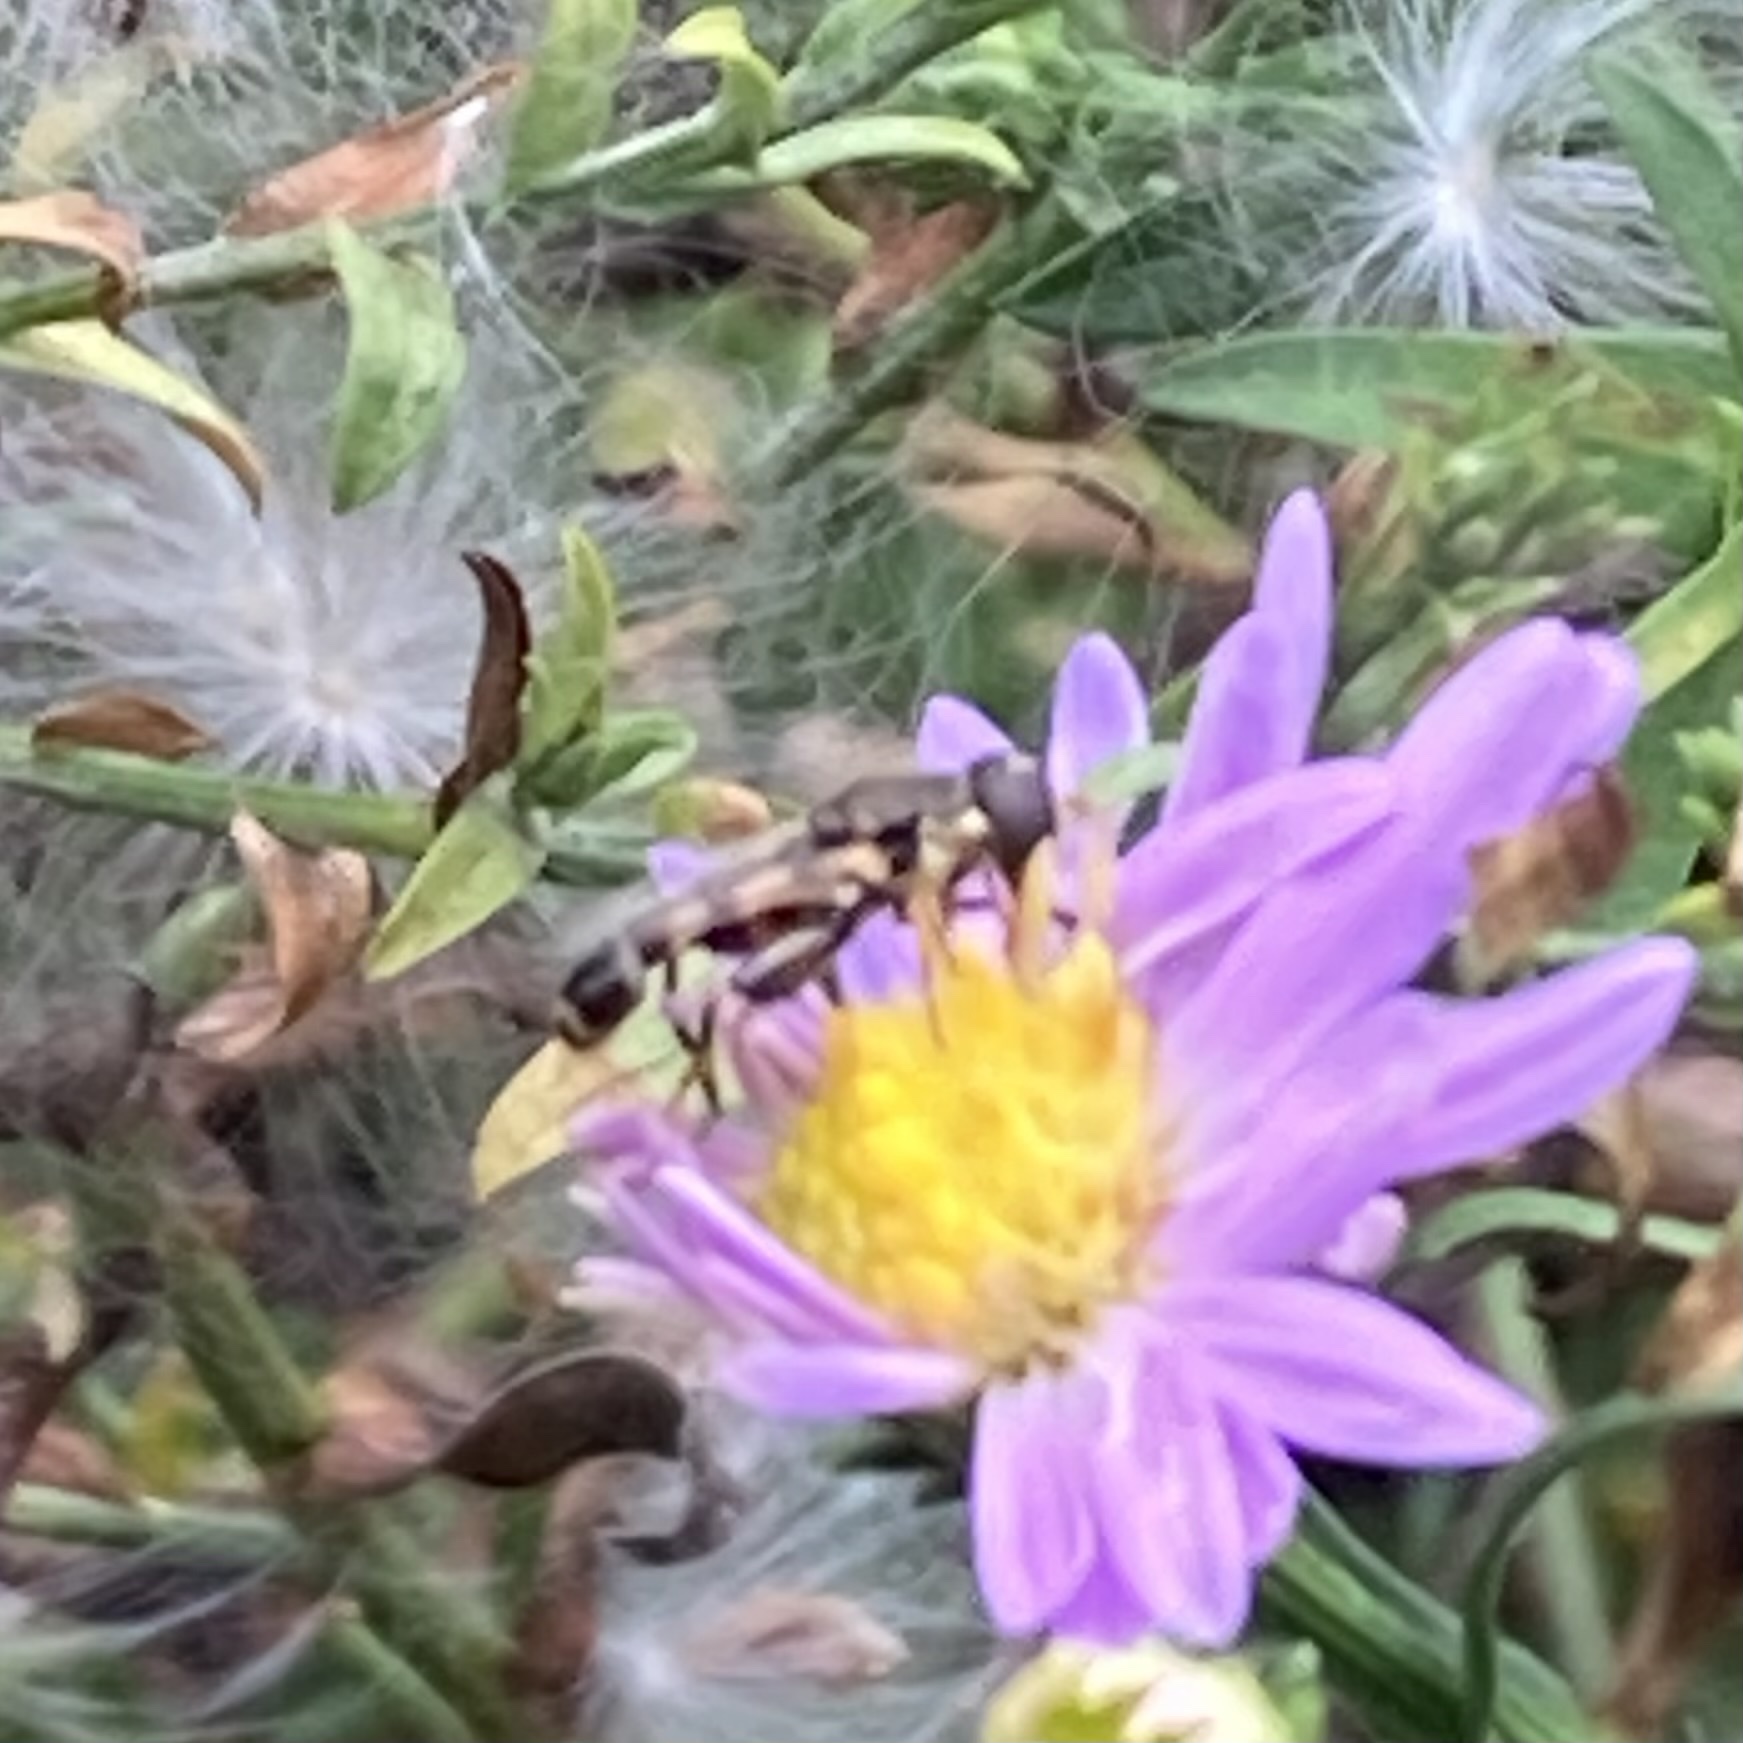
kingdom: Animalia
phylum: Arthropoda
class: Insecta
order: Diptera
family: Syrphidae
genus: Syritta
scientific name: Syritta pipiens
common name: Hover fly
